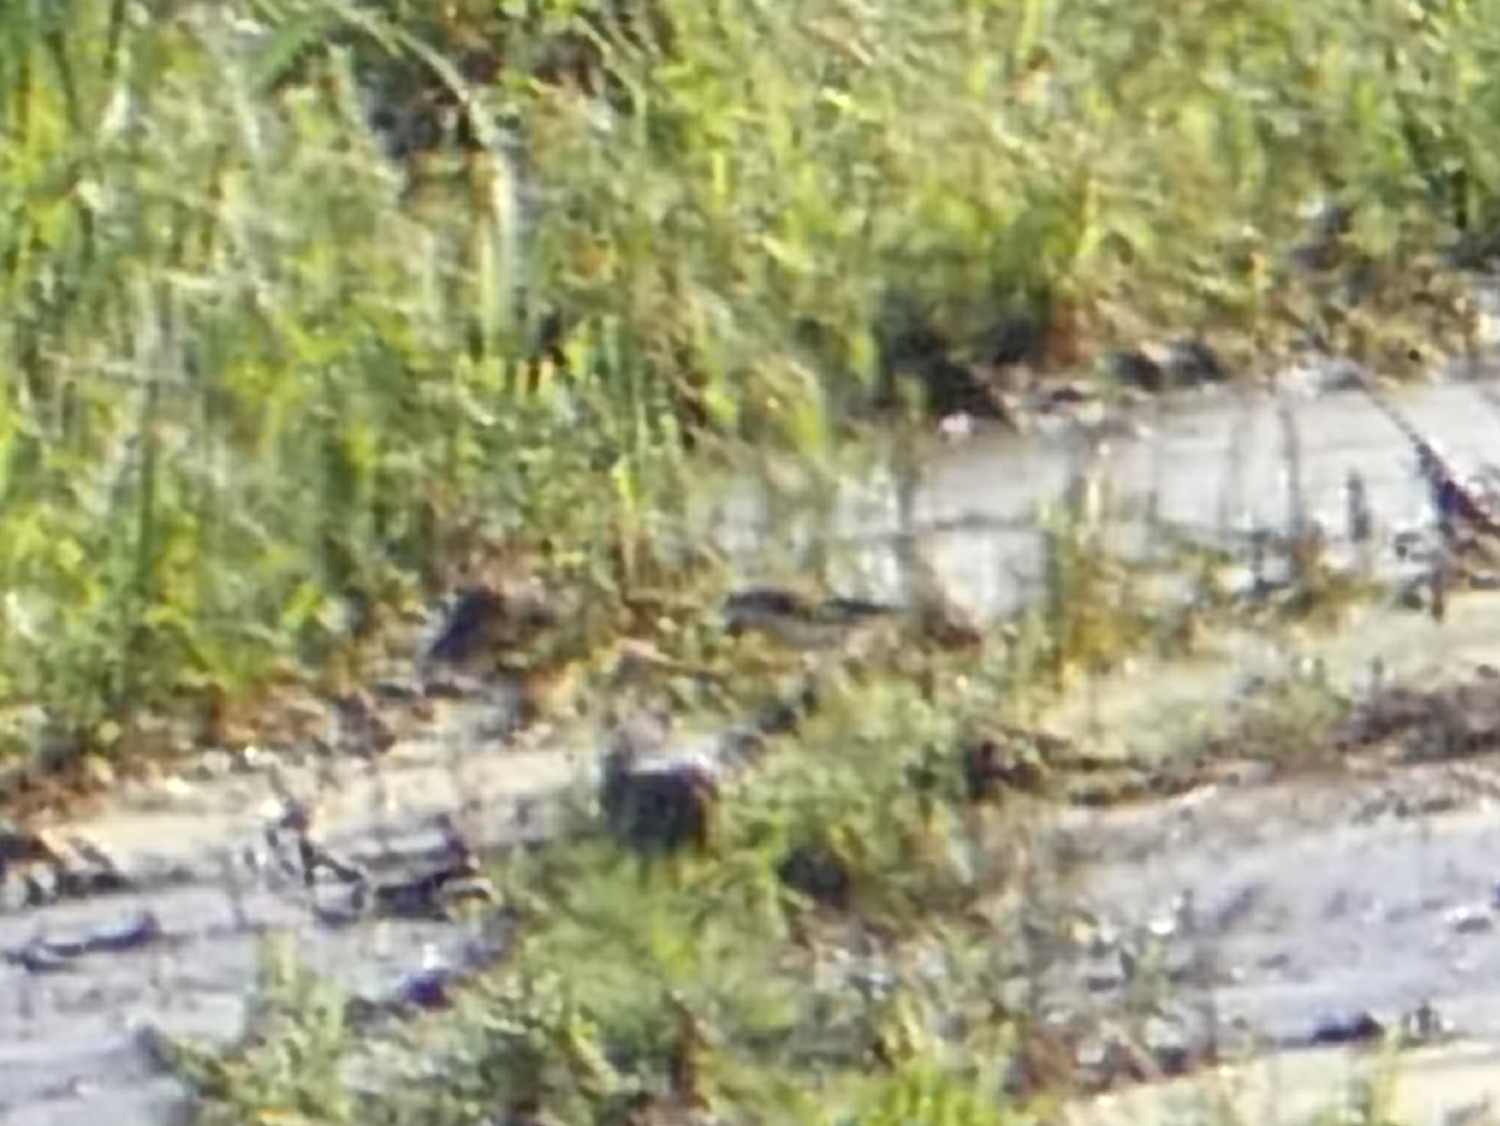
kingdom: Animalia
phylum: Chordata
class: Aves
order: Passeriformes
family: Fringillidae
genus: Carduelis
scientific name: Carduelis carduelis
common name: European goldfinch
